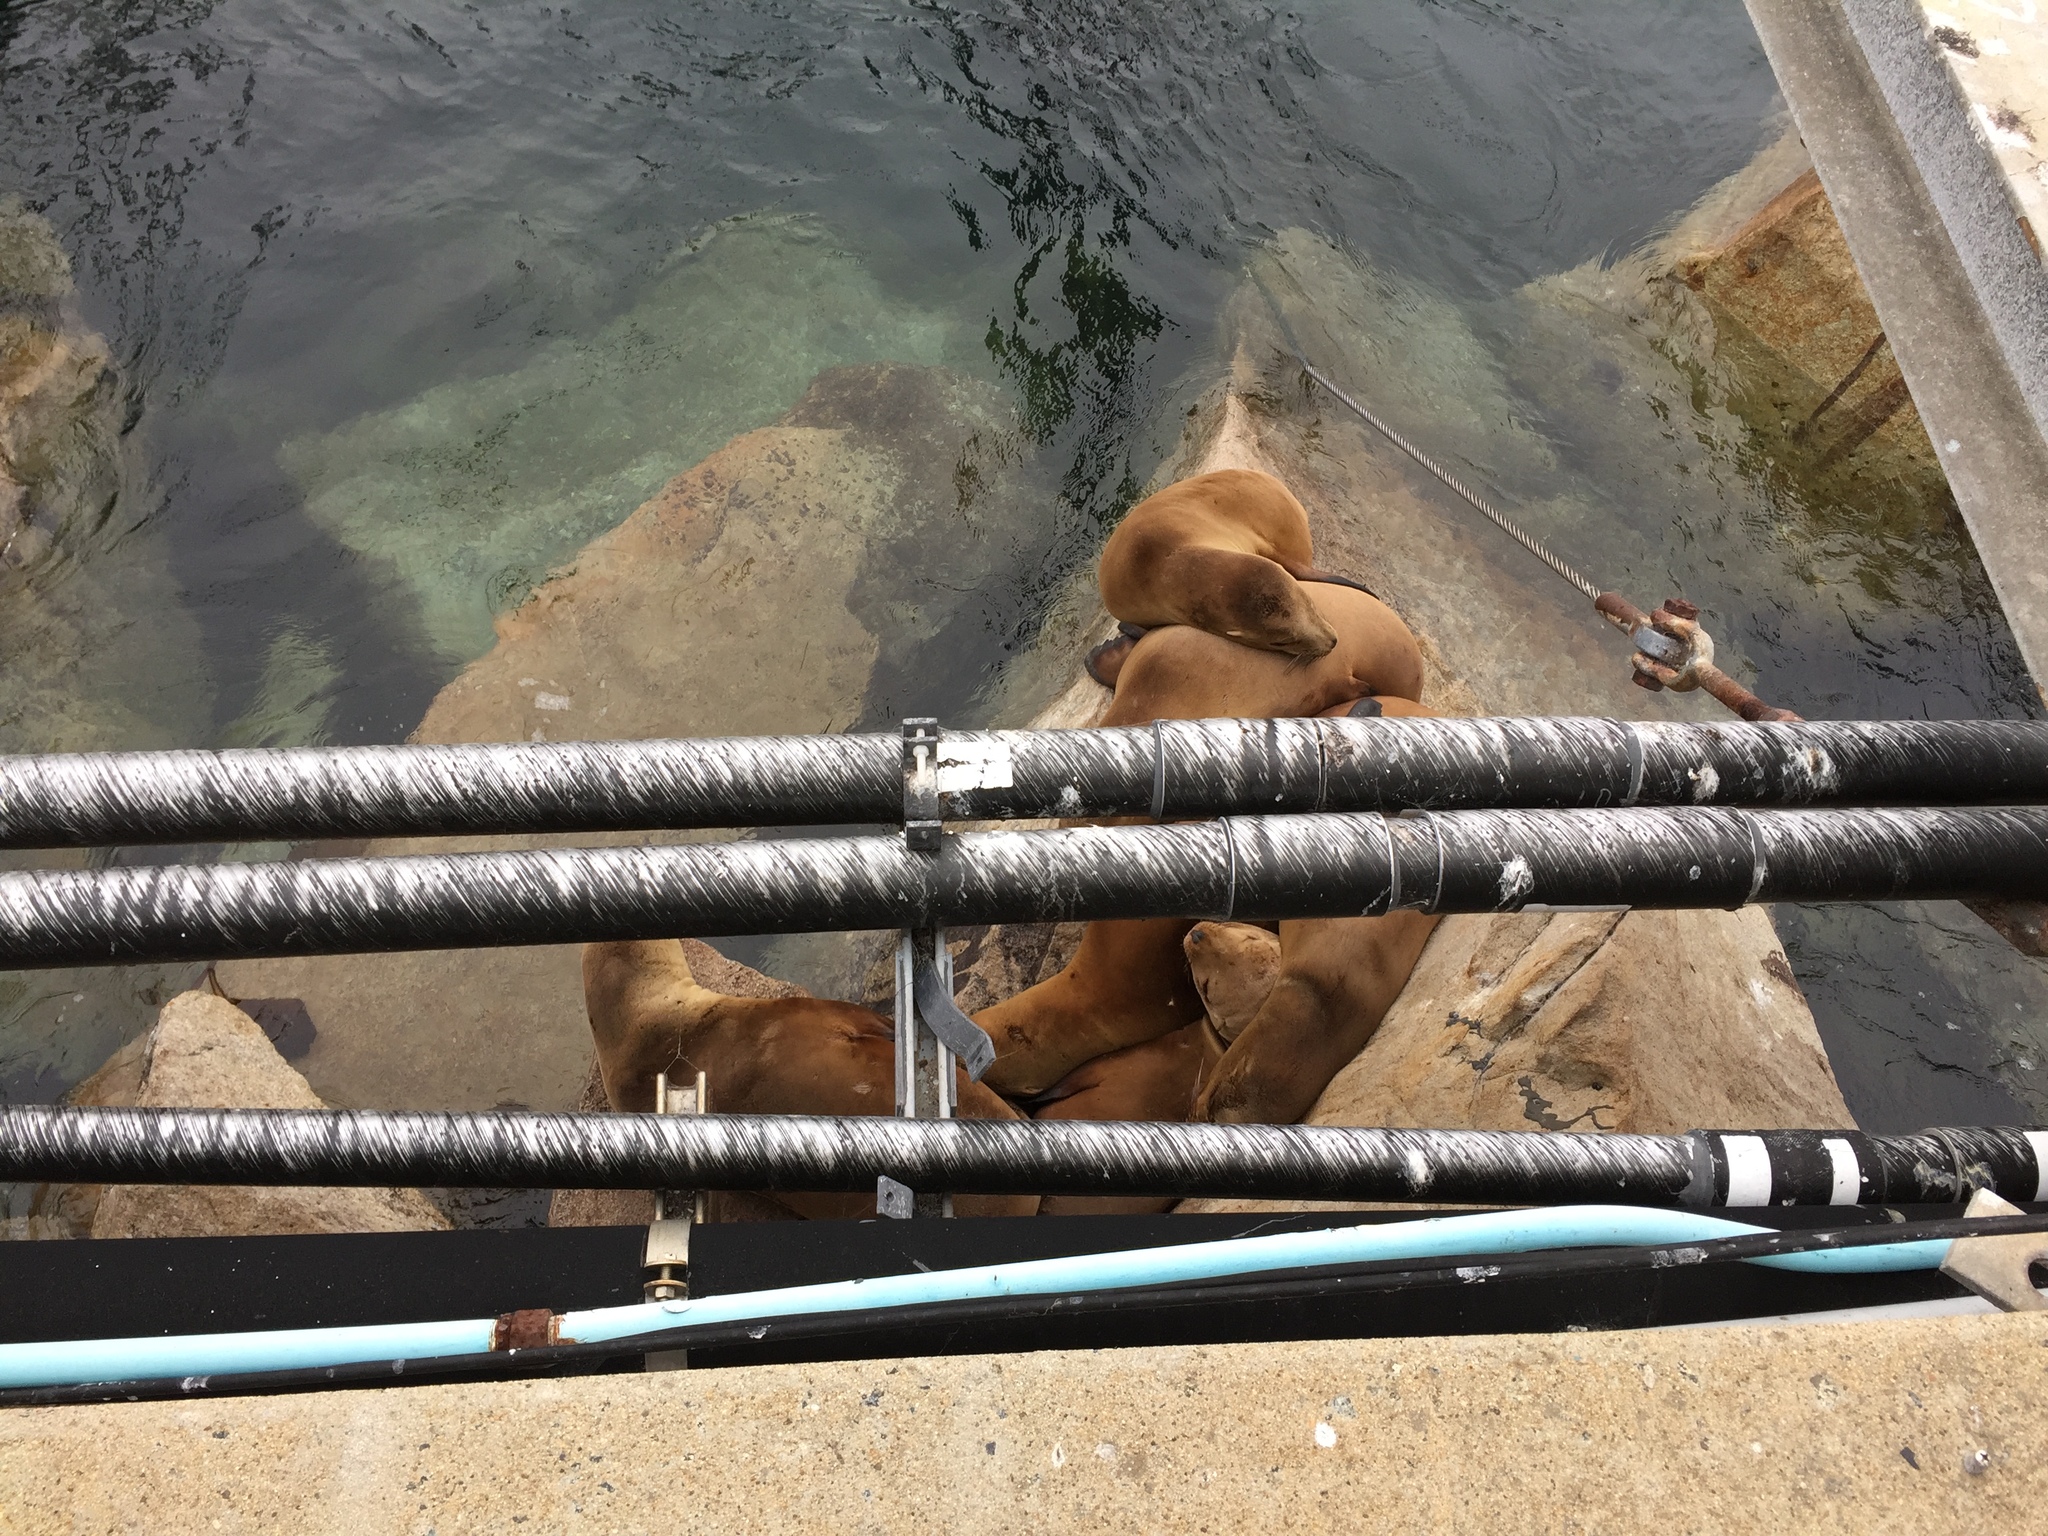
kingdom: Animalia
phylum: Chordata
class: Mammalia
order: Carnivora
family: Otariidae
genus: Zalophus
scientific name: Zalophus californianus
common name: California sea lion
